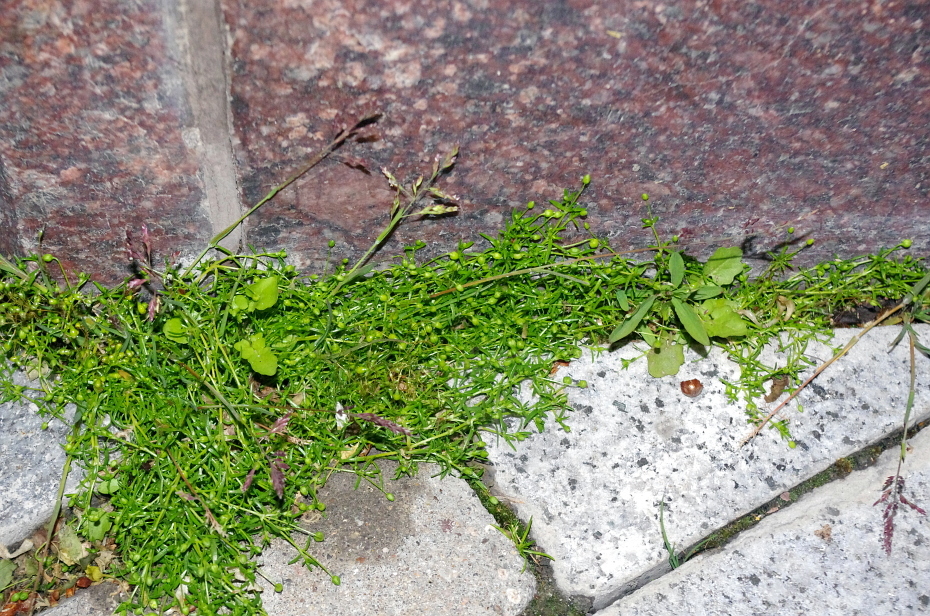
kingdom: Plantae
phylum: Tracheophyta
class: Magnoliopsida
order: Caryophyllales
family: Caryophyllaceae
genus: Sagina
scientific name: Sagina procumbens
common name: Procumbent pearlwort
